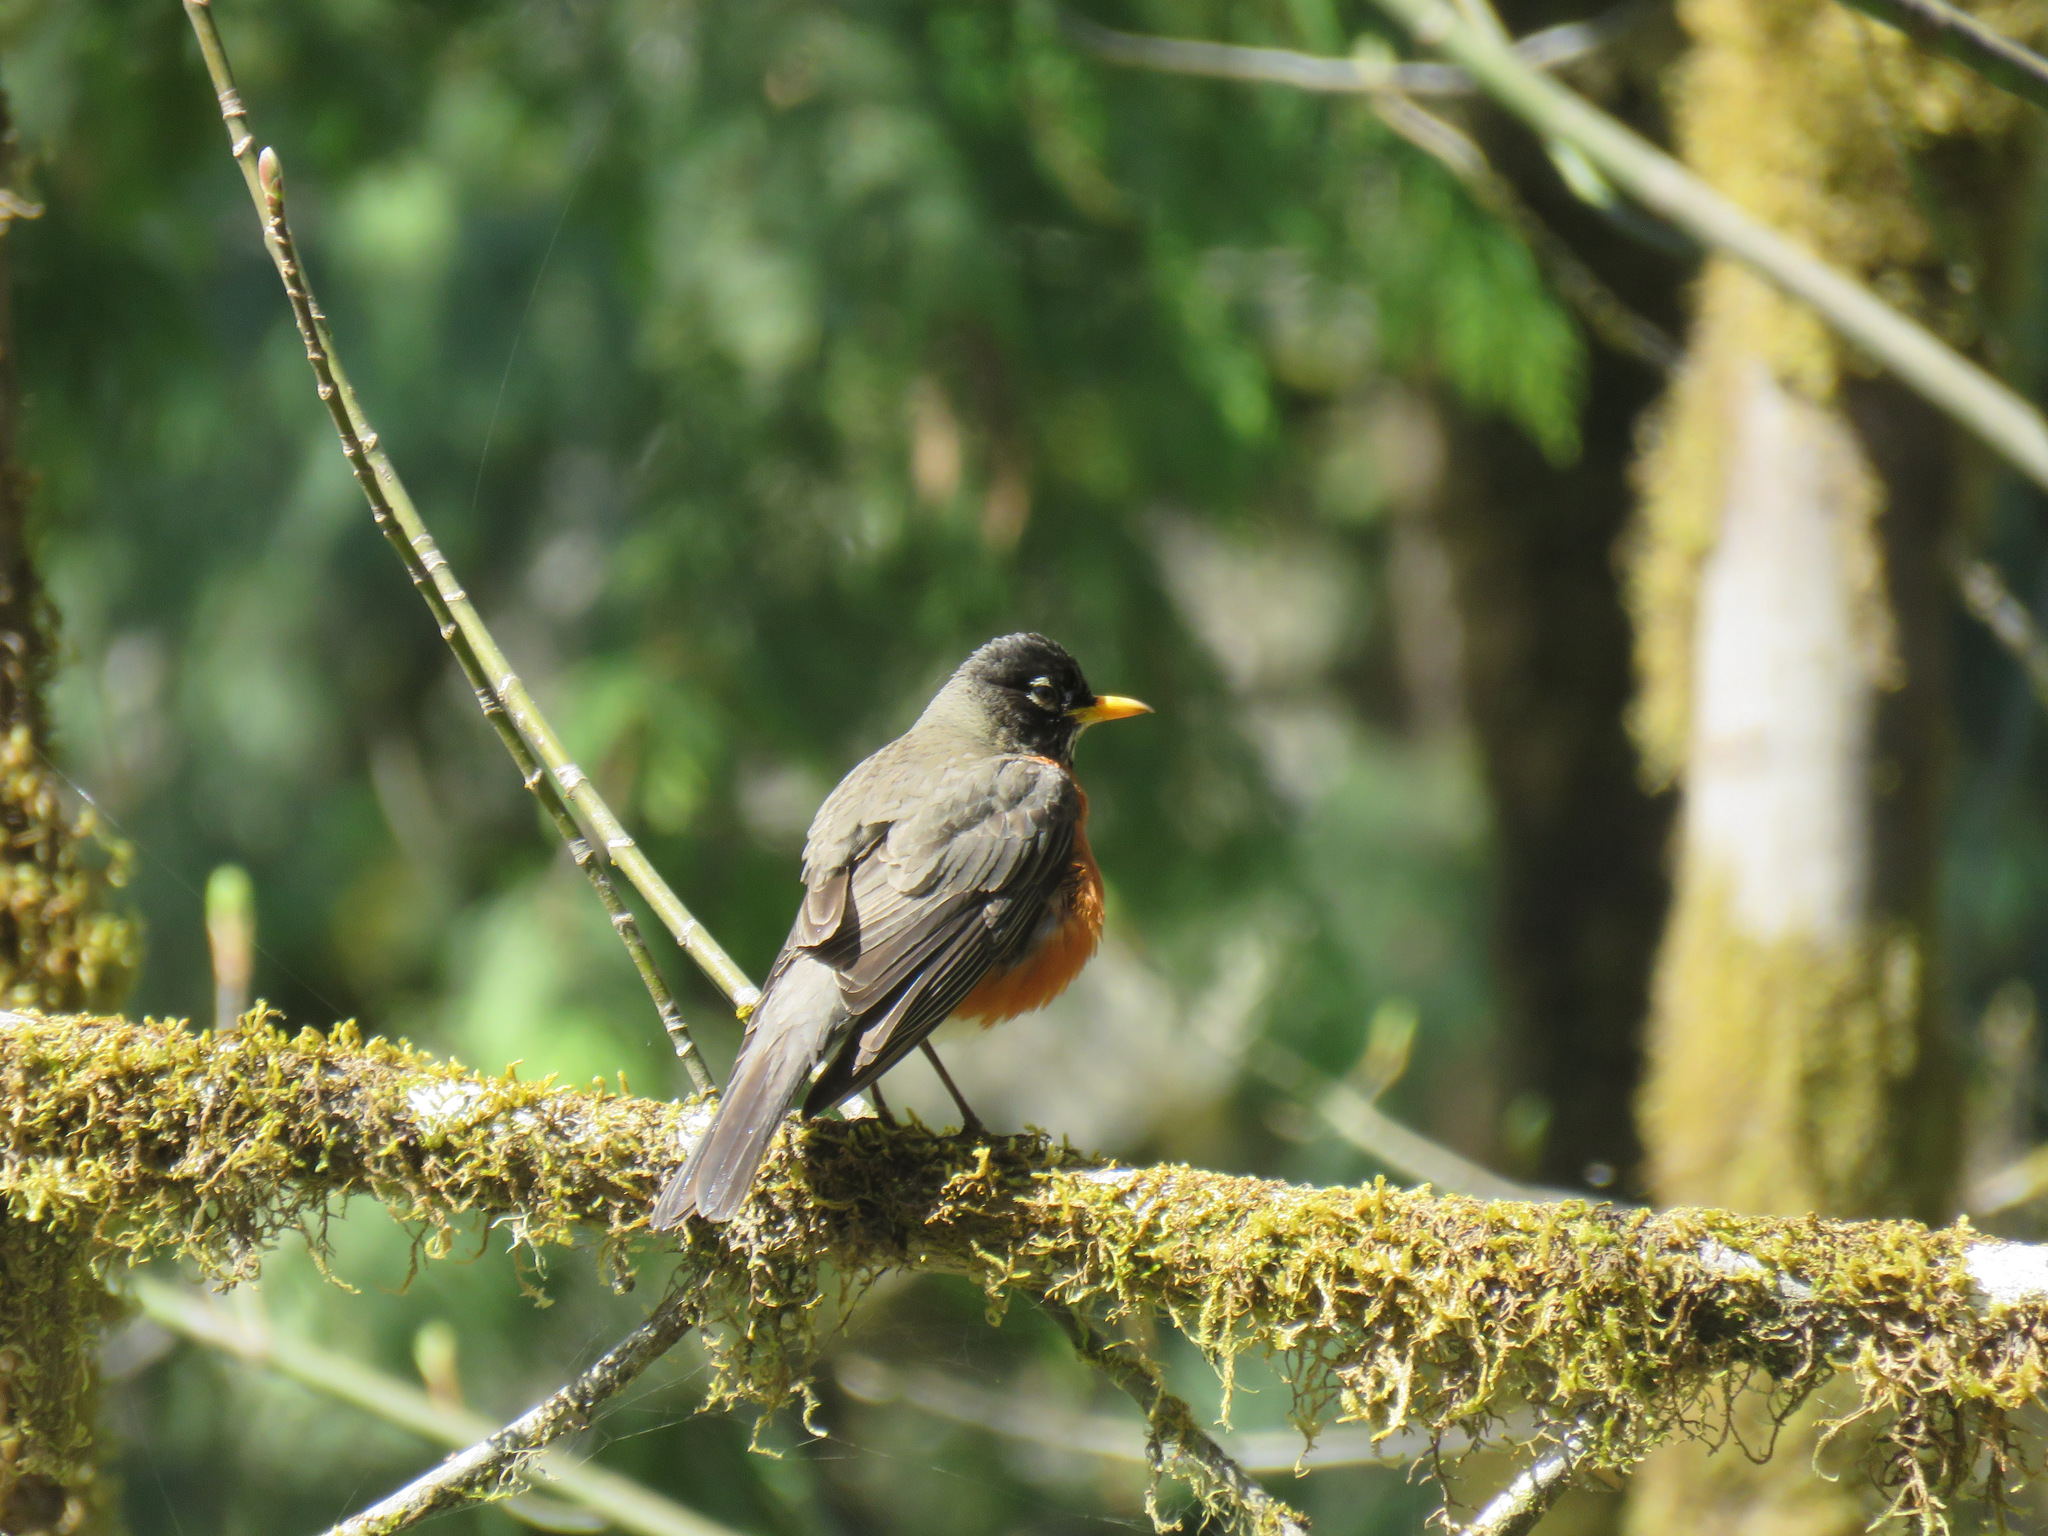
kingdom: Animalia
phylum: Chordata
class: Aves
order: Passeriformes
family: Turdidae
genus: Turdus
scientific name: Turdus migratorius
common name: American robin
